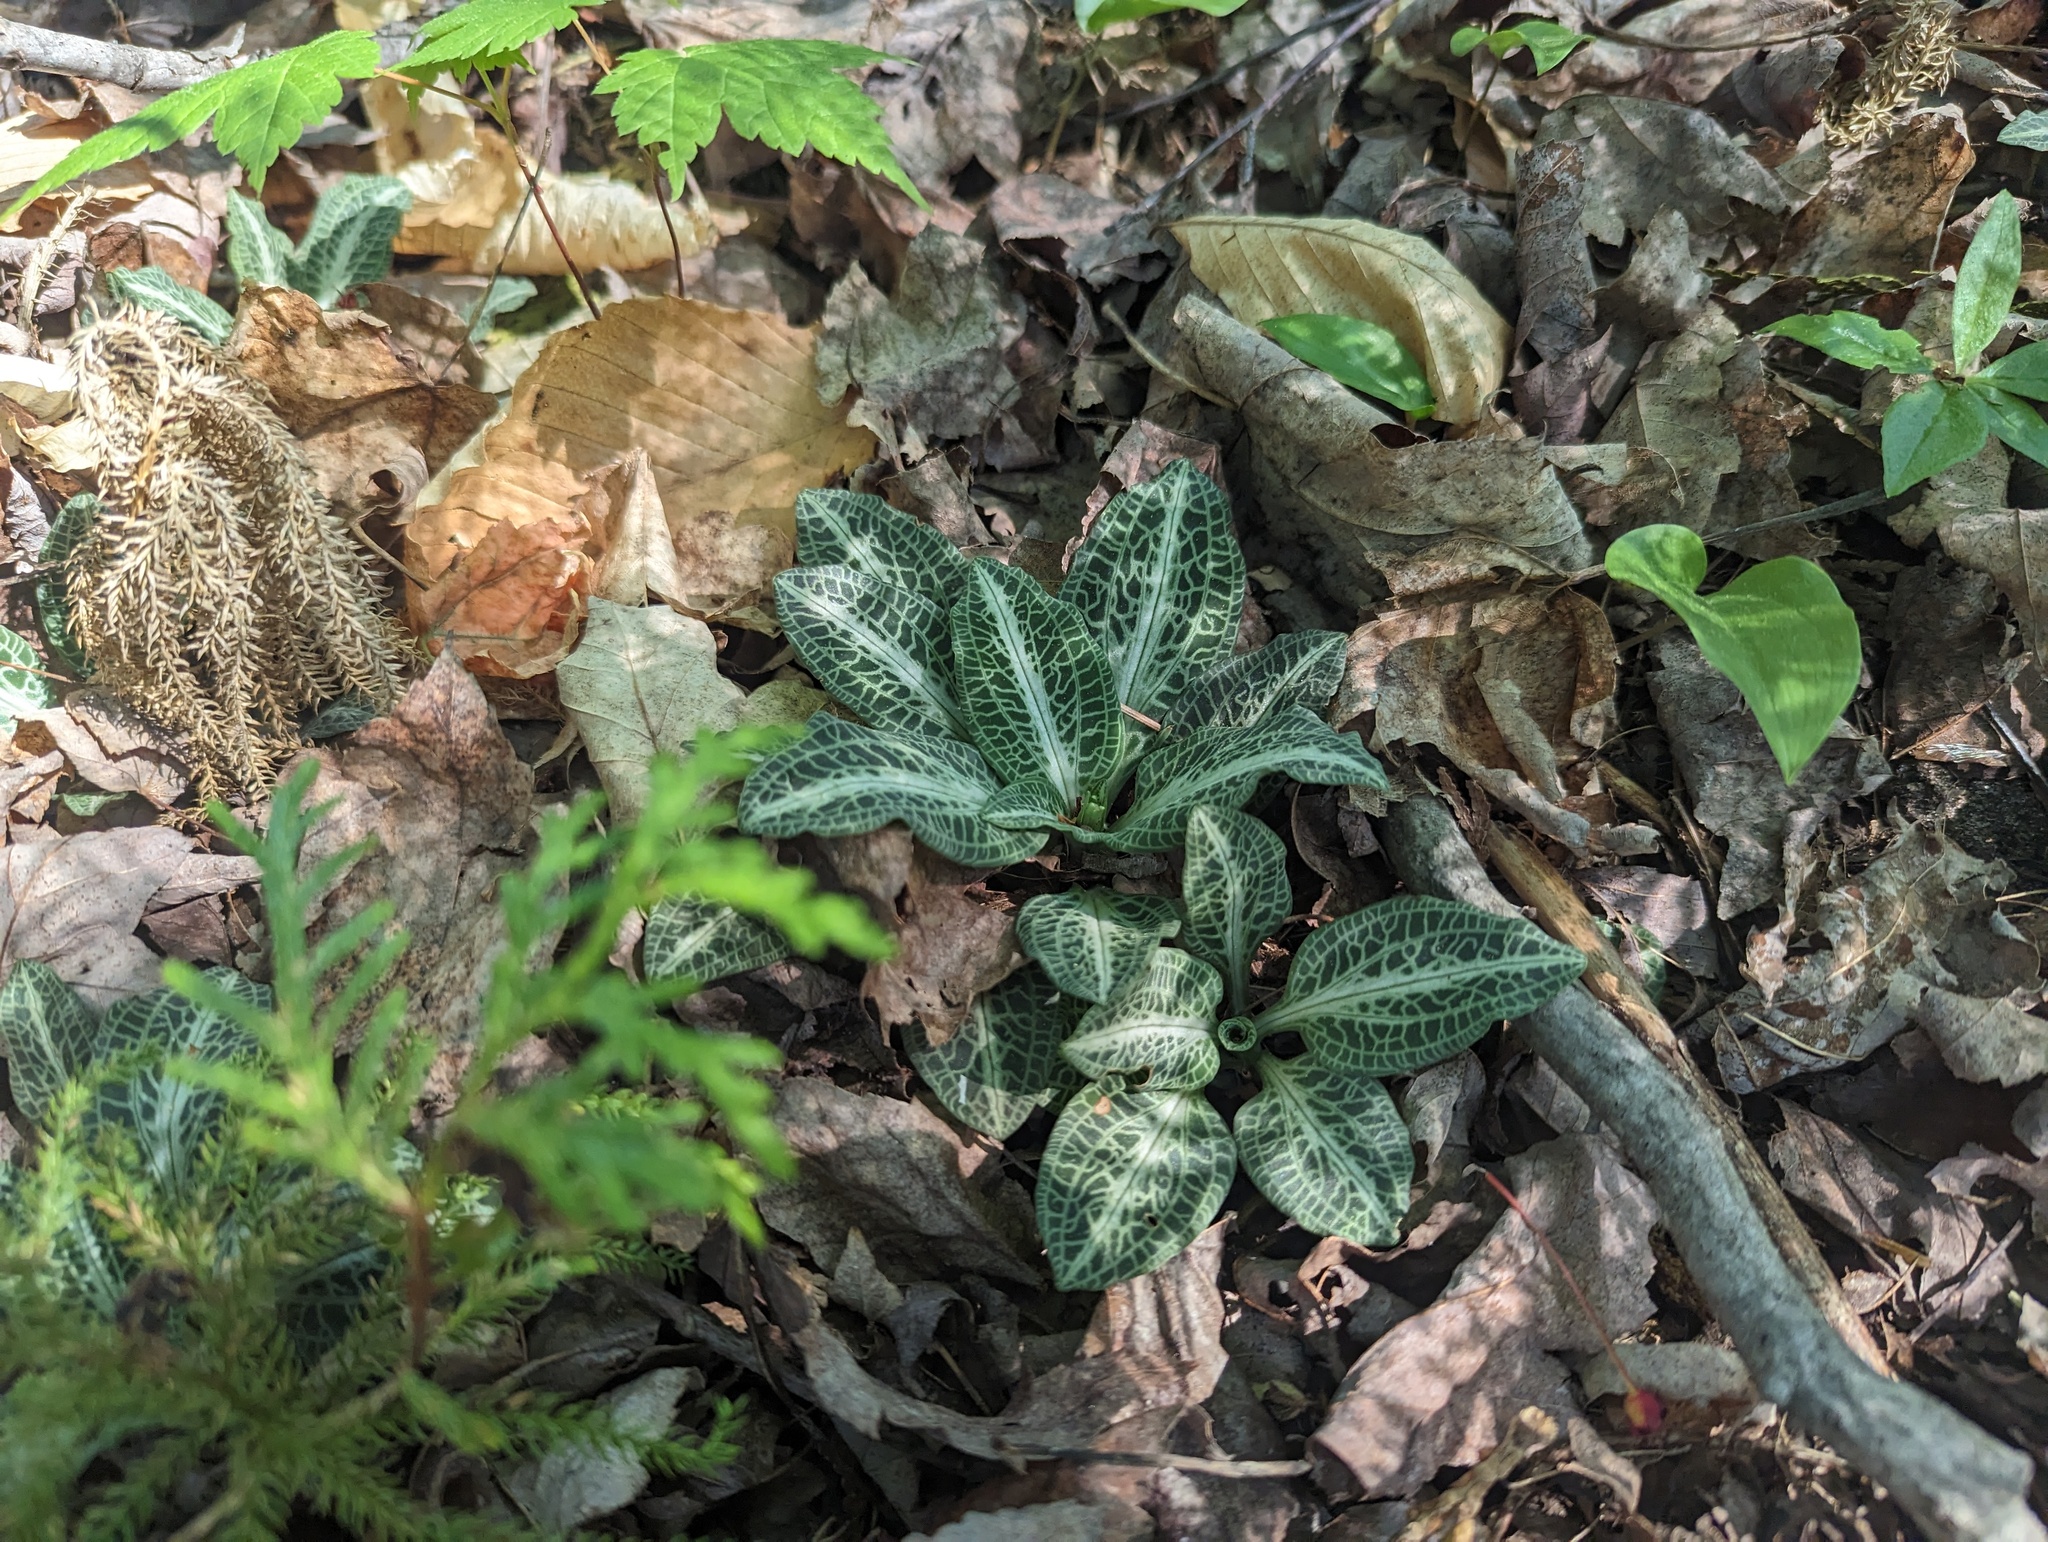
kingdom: Plantae
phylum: Tracheophyta
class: Liliopsida
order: Asparagales
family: Orchidaceae
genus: Goodyera
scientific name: Goodyera pubescens
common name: Downy rattlesnake-plantain
